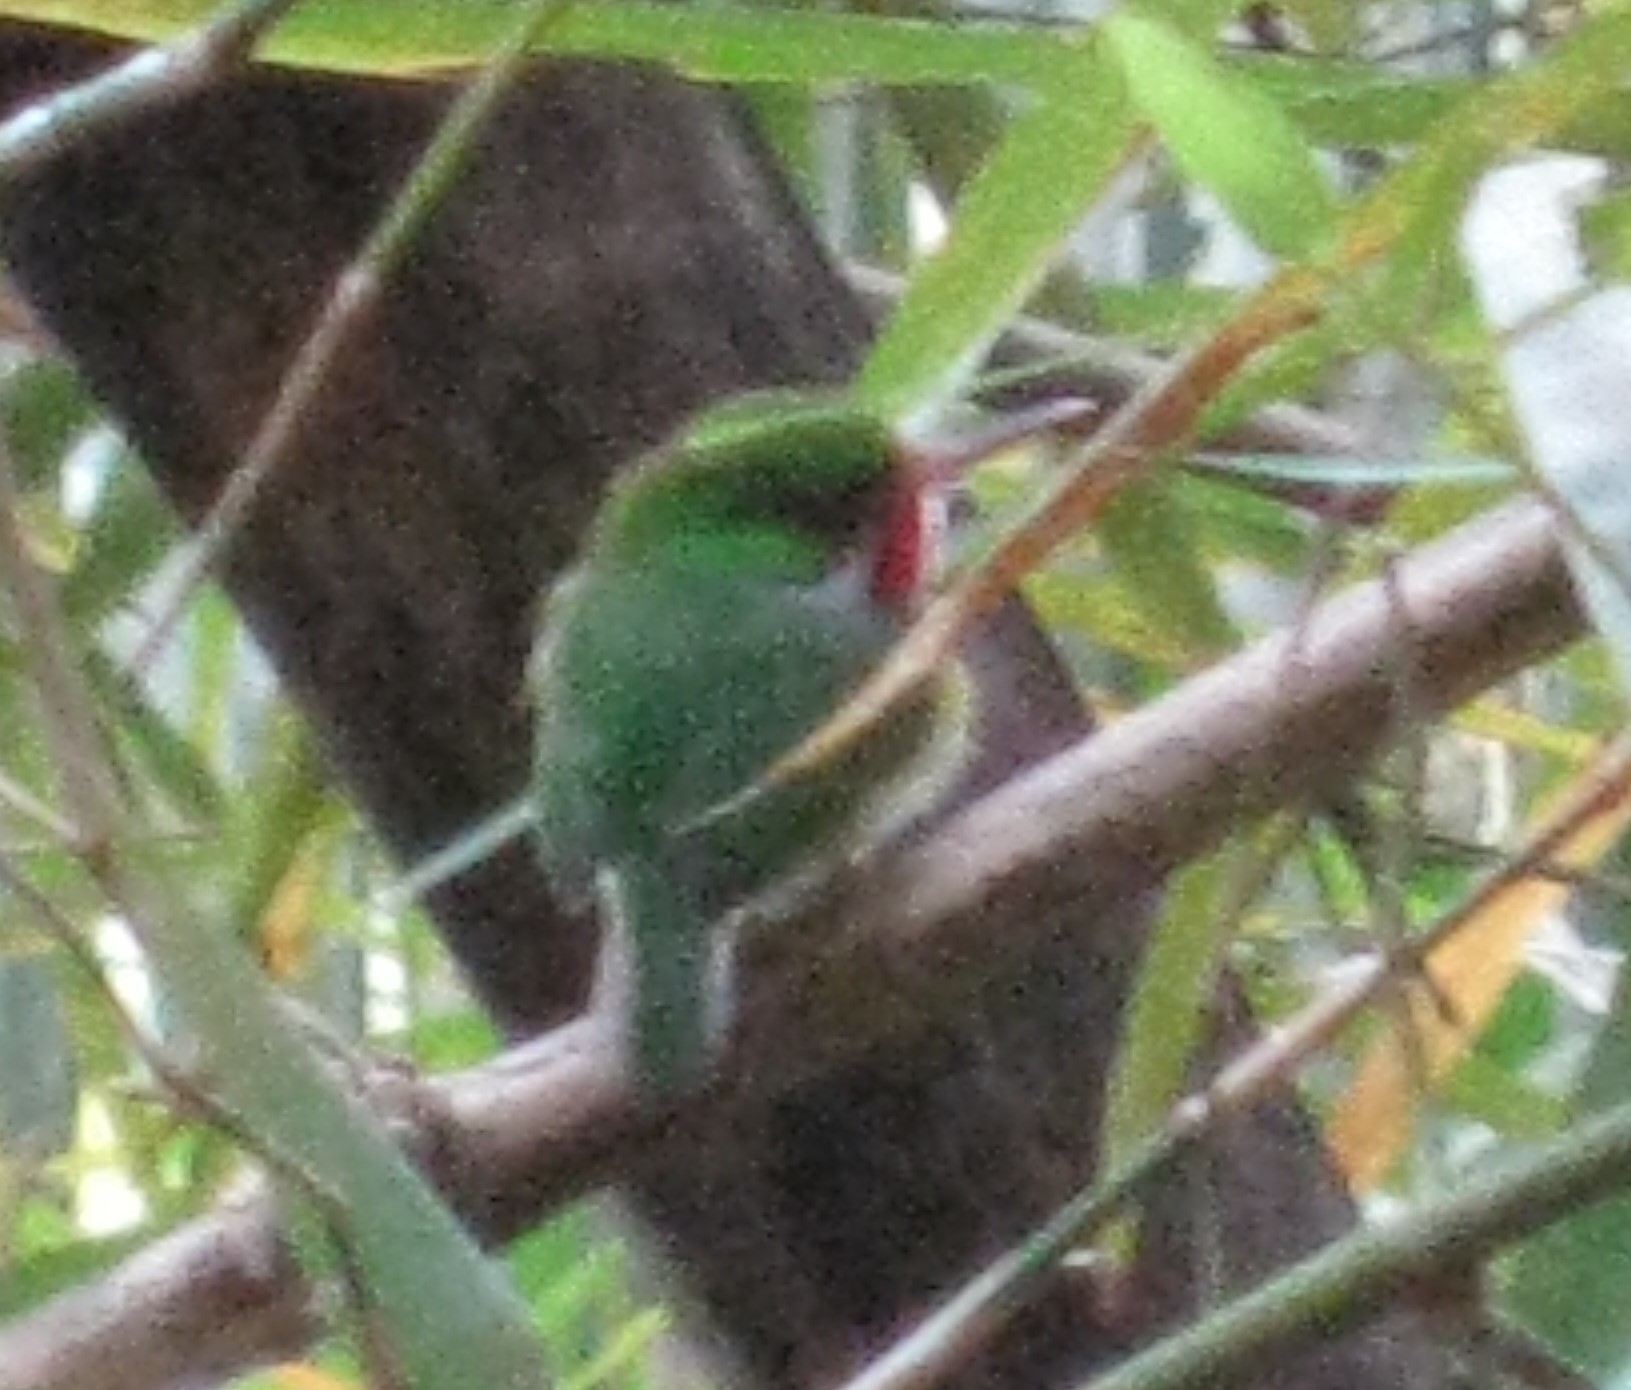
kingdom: Animalia
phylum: Chordata
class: Aves
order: Coraciiformes
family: Todidae
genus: Todus
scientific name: Todus mexicanus
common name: Puerto rican tody
